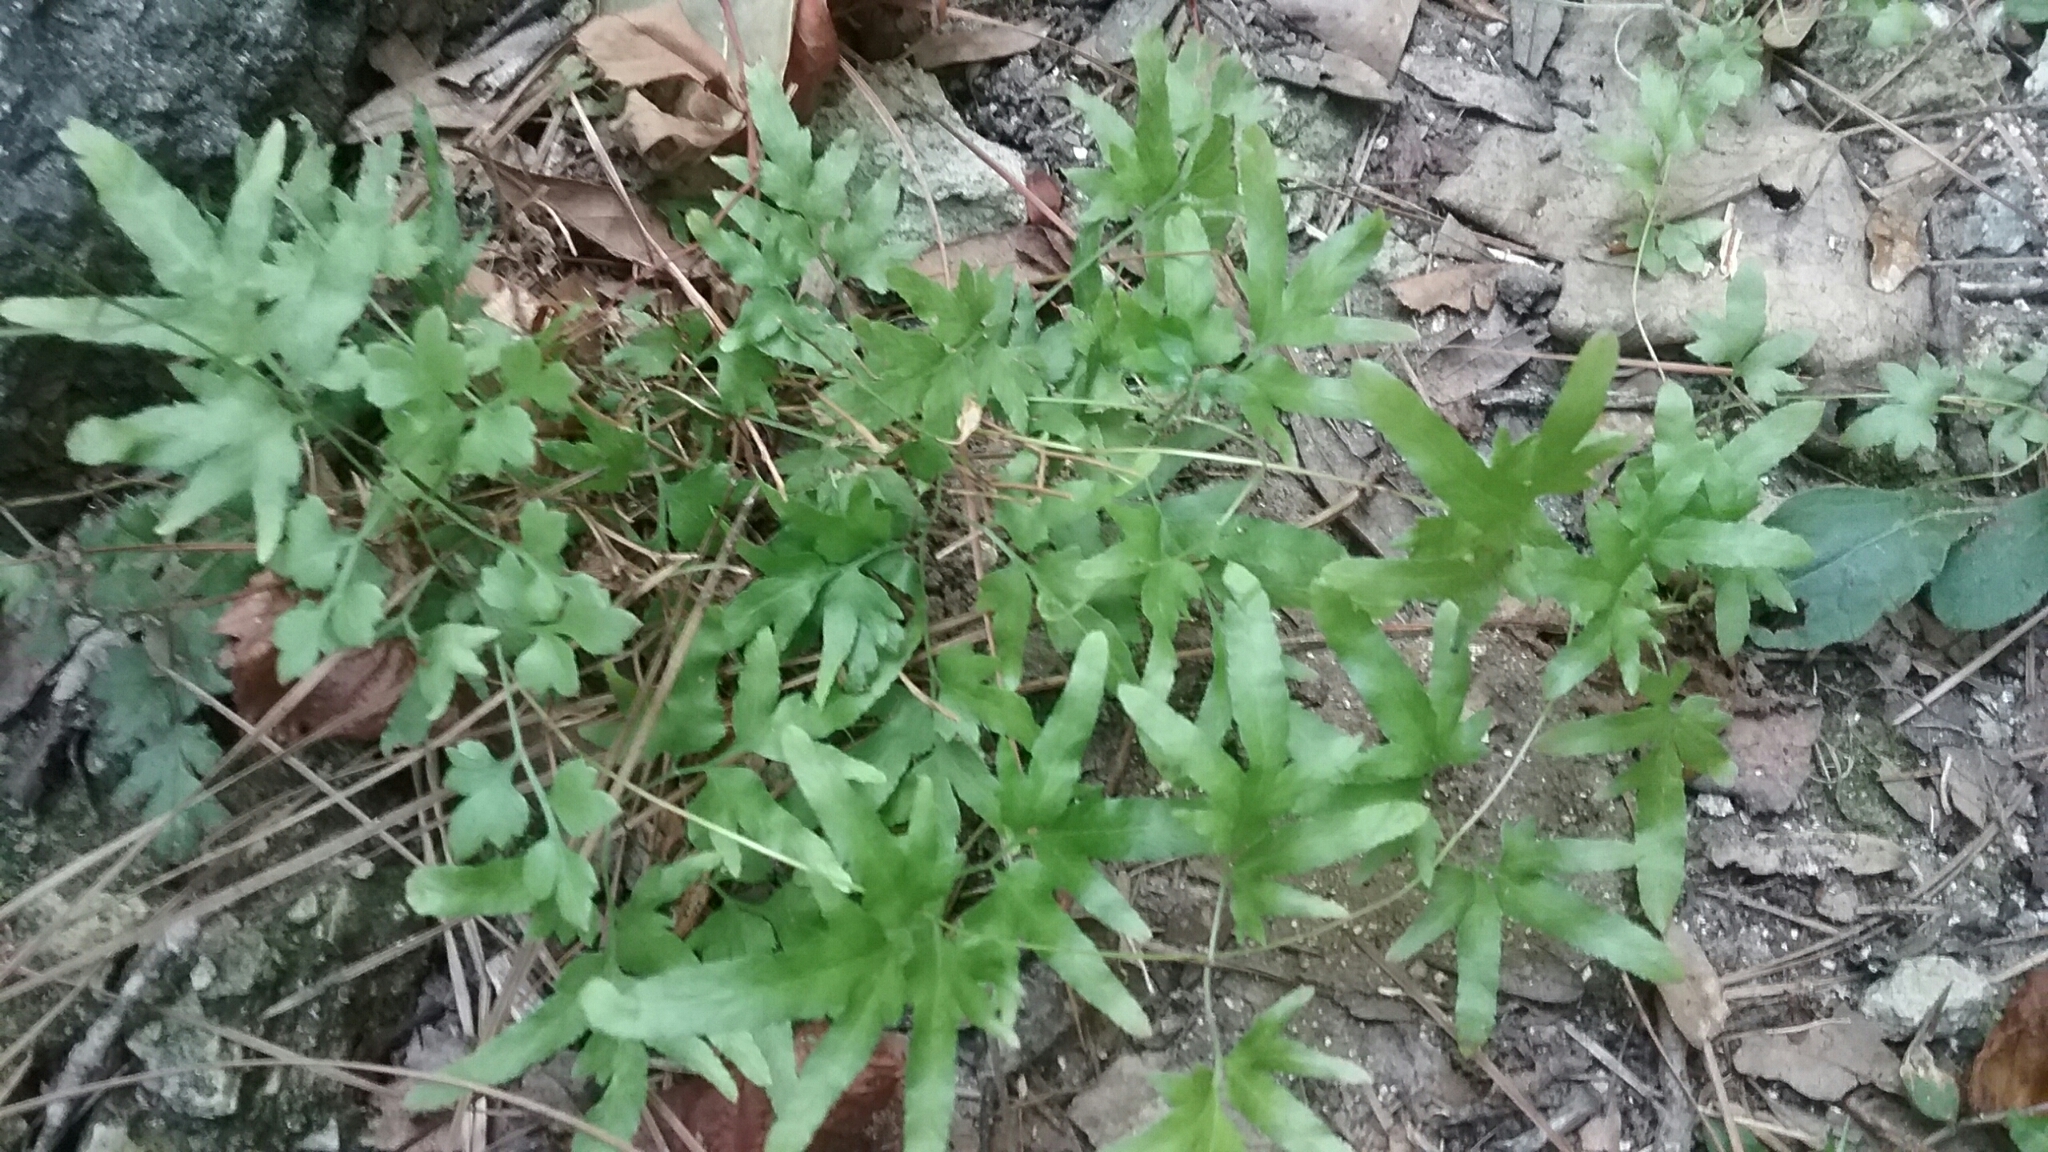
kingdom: Plantae
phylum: Tracheophyta
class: Polypodiopsida
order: Schizaeales
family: Lygodiaceae
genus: Lygodium
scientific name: Lygodium japonicum
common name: Japanese climbing fern
